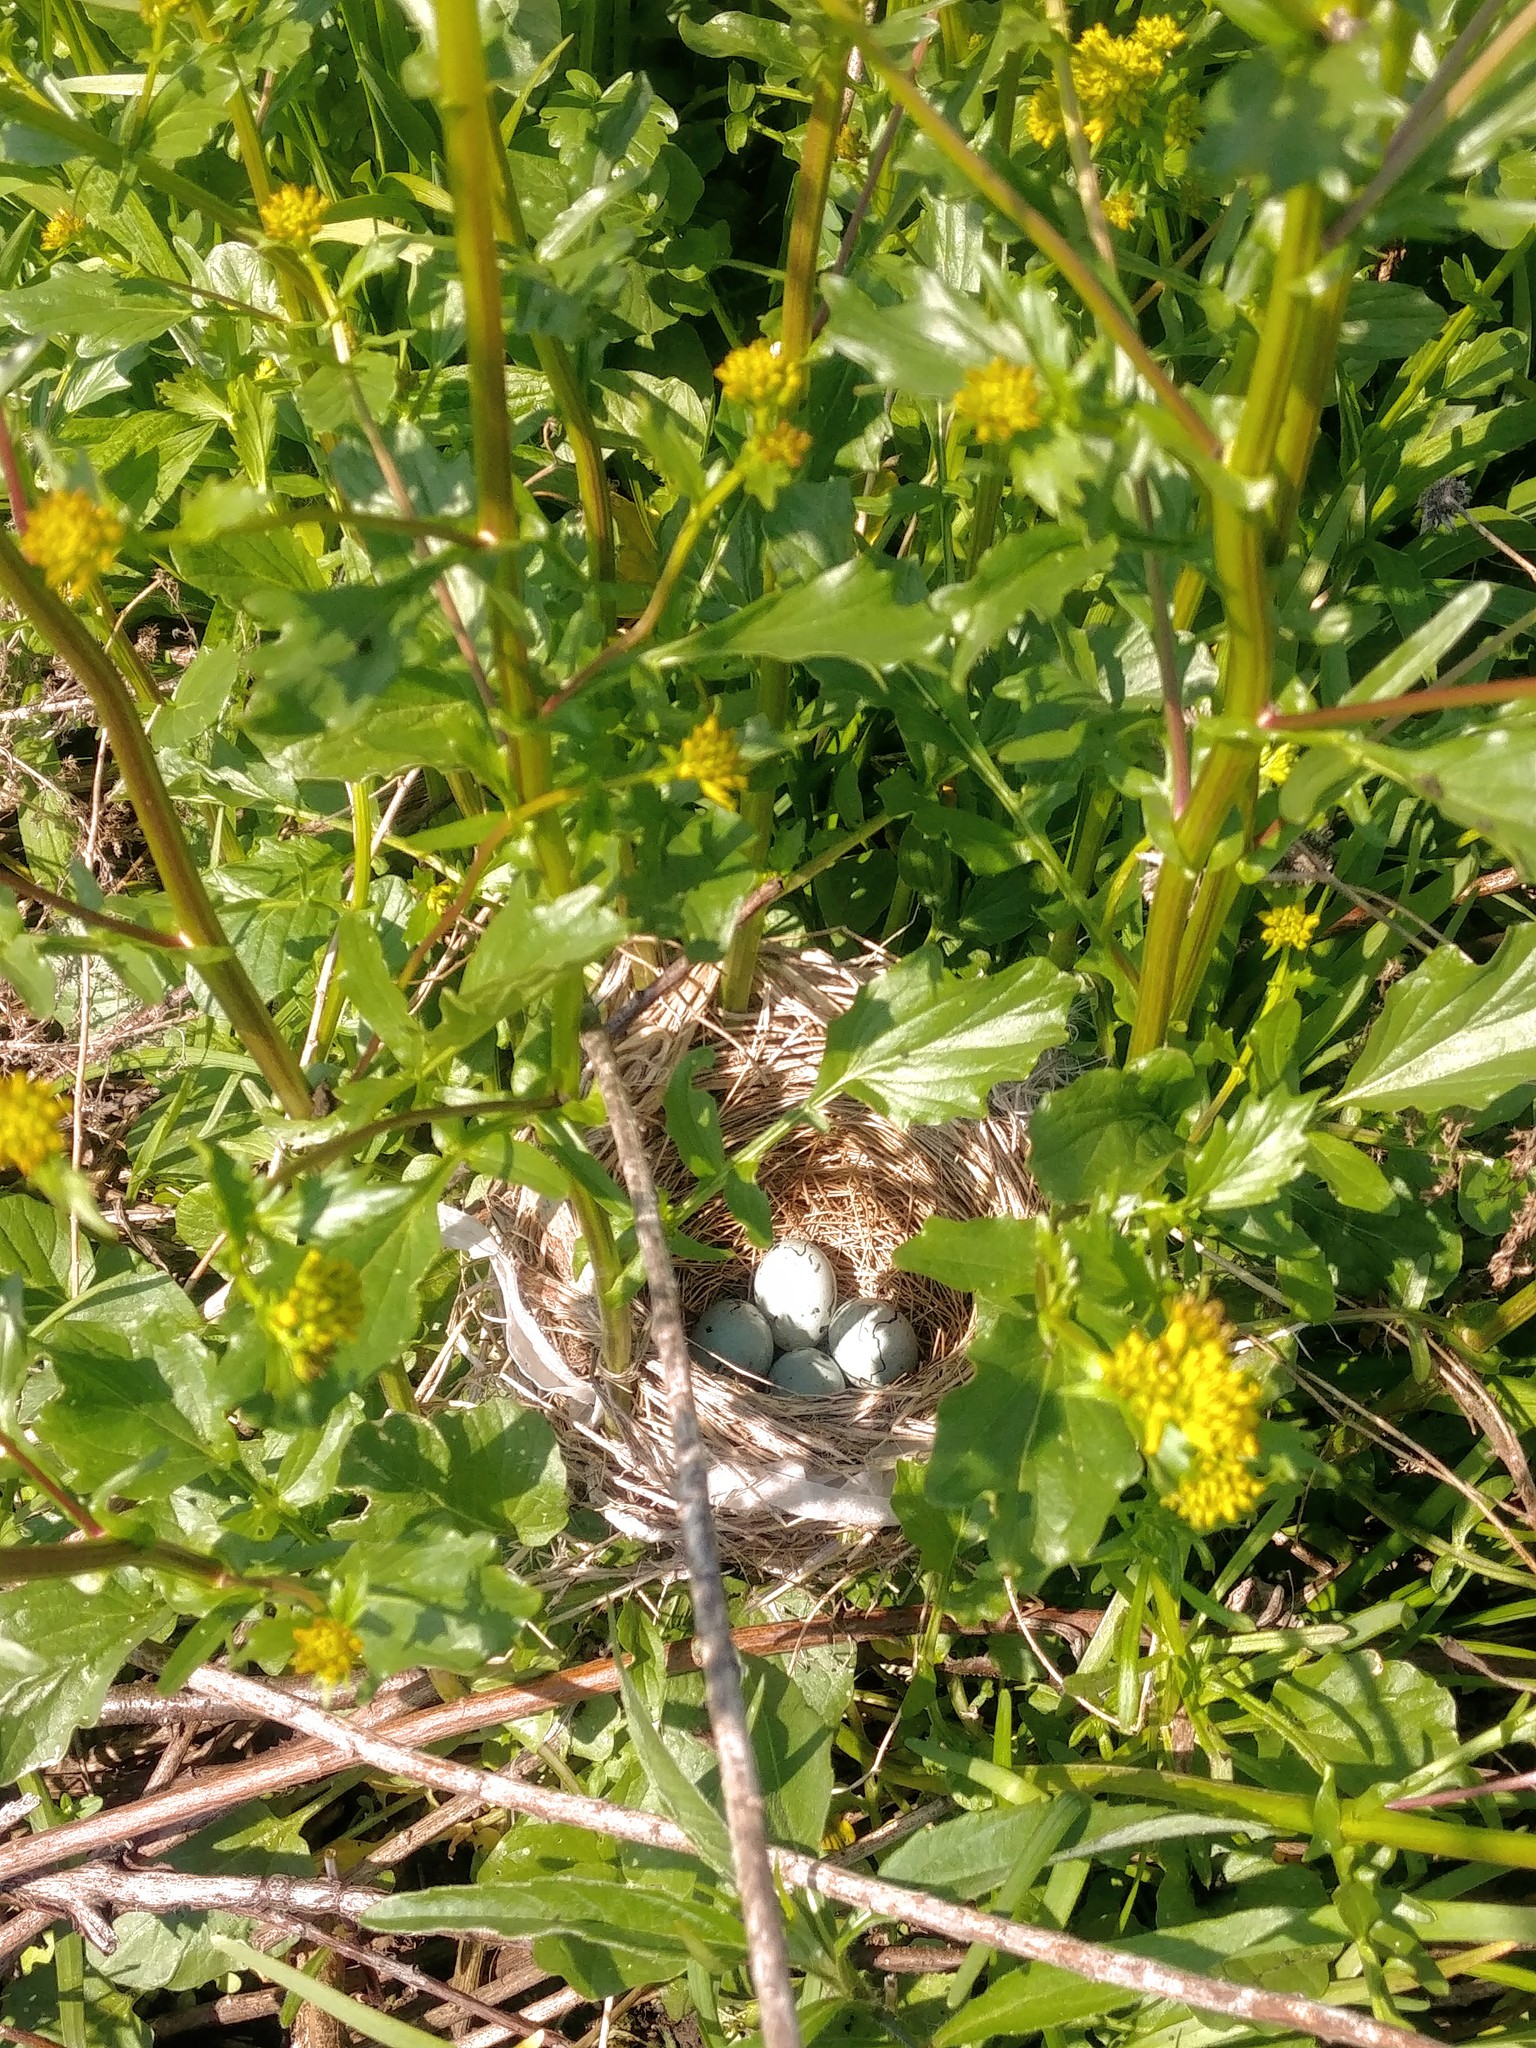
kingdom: Animalia
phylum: Chordata
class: Aves
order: Passeriformes
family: Icteridae
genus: Agelaius
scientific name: Agelaius phoeniceus
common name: Red-winged blackbird
